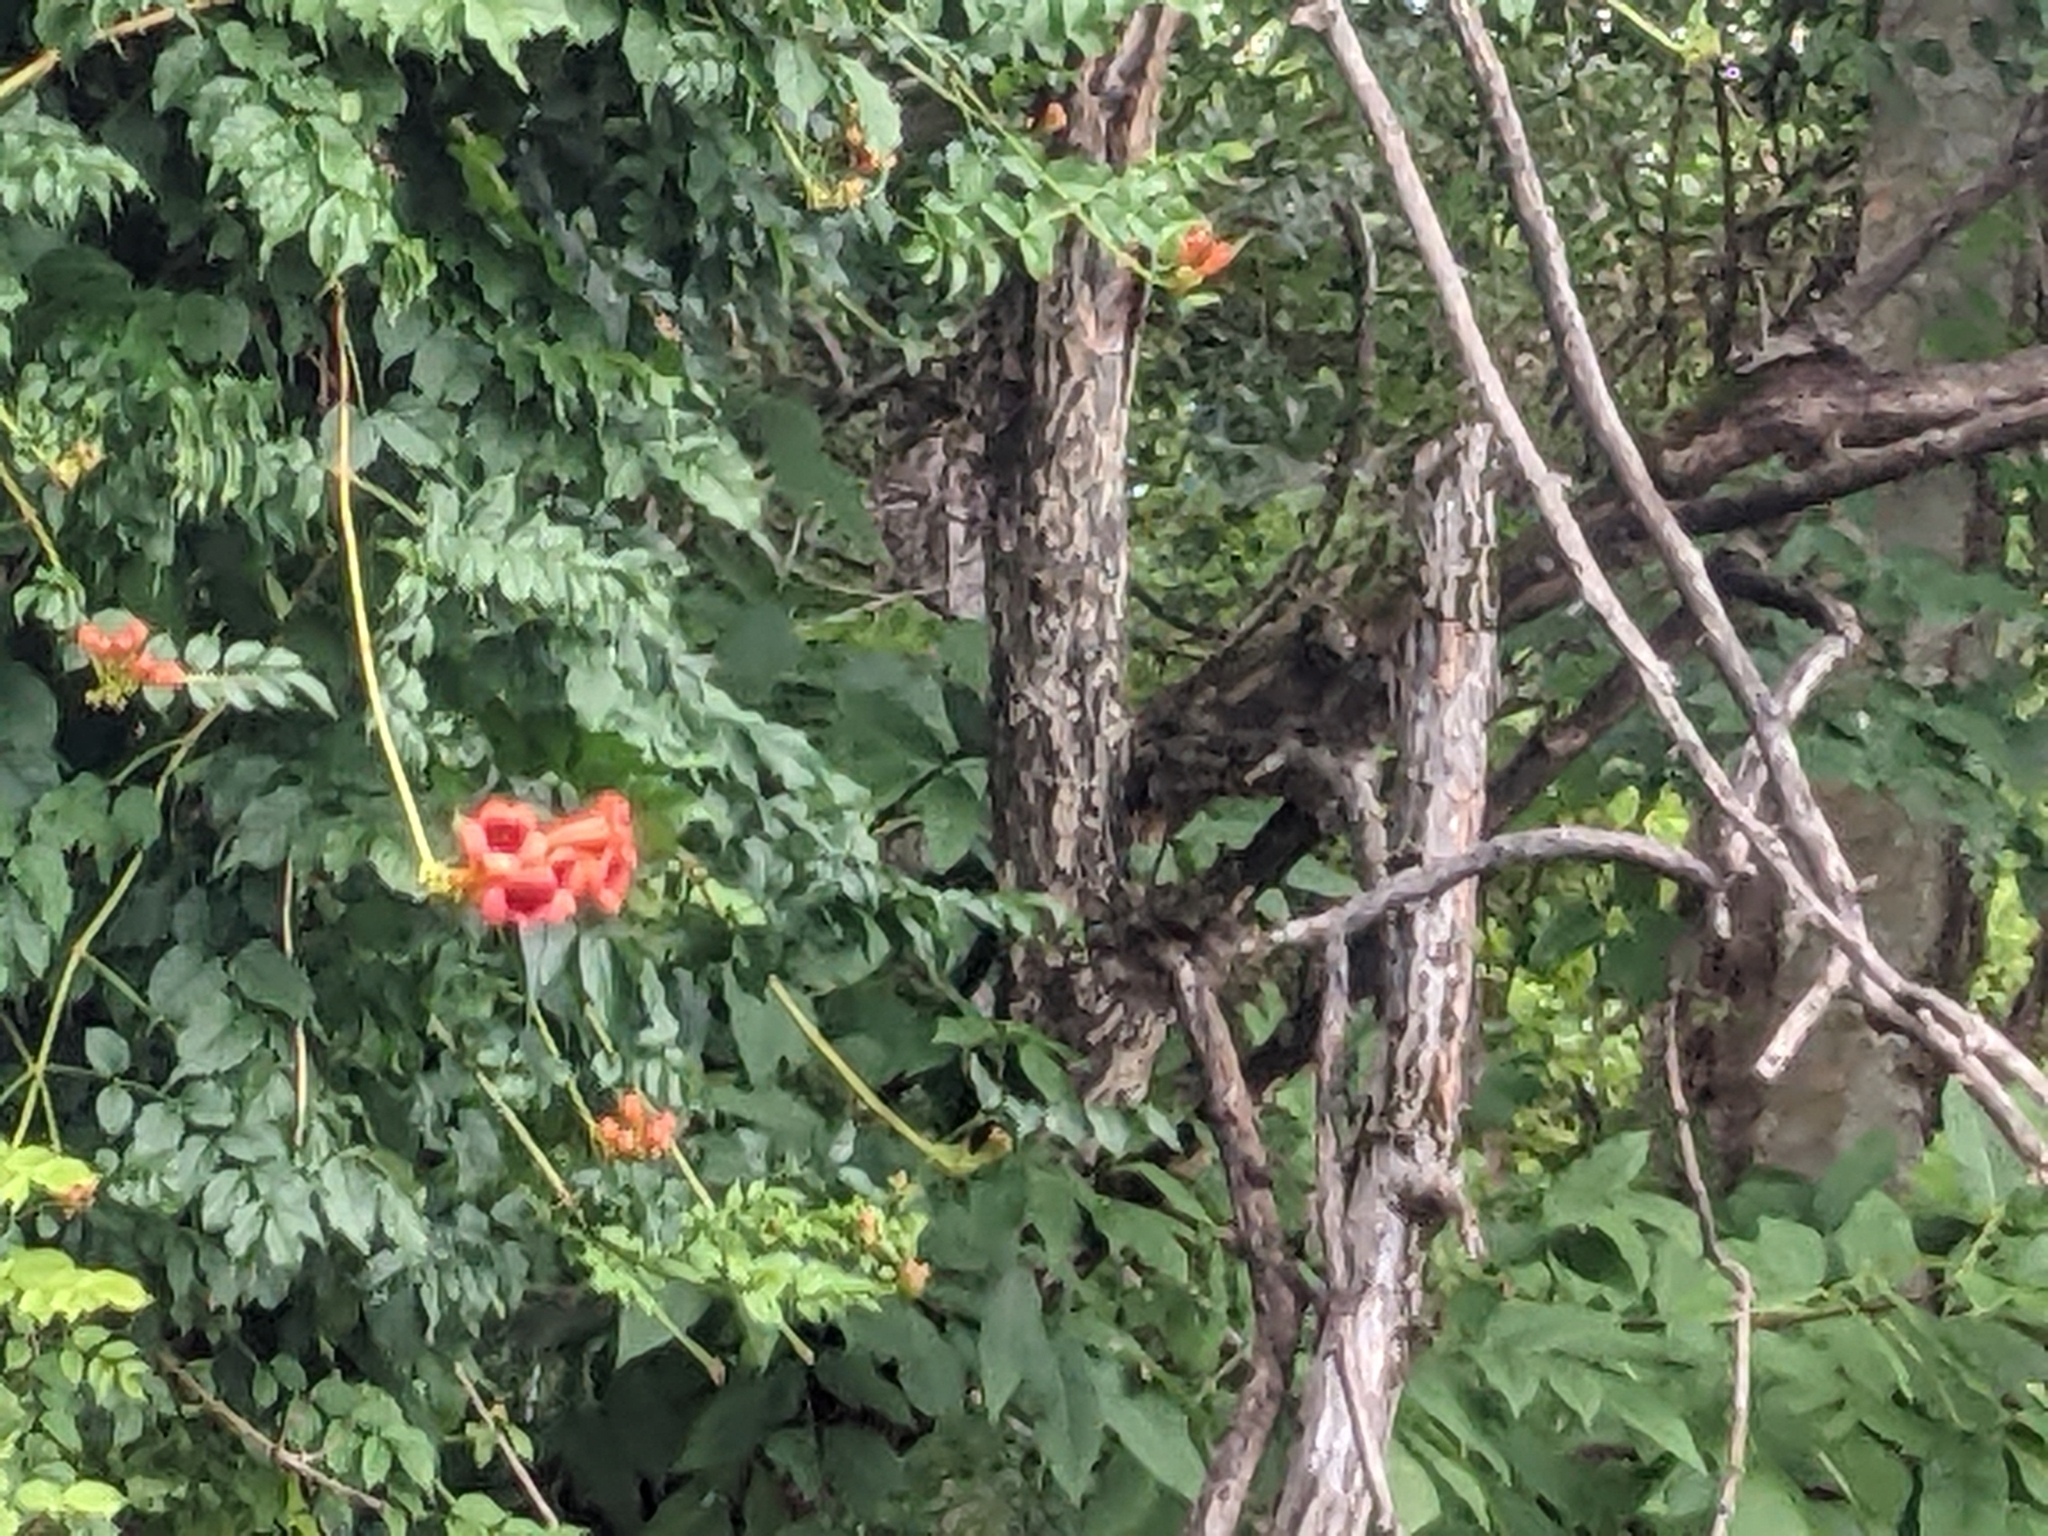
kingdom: Plantae
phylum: Tracheophyta
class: Magnoliopsida
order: Lamiales
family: Bignoniaceae
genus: Campsis
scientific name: Campsis radicans
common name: Trumpet-creeper
